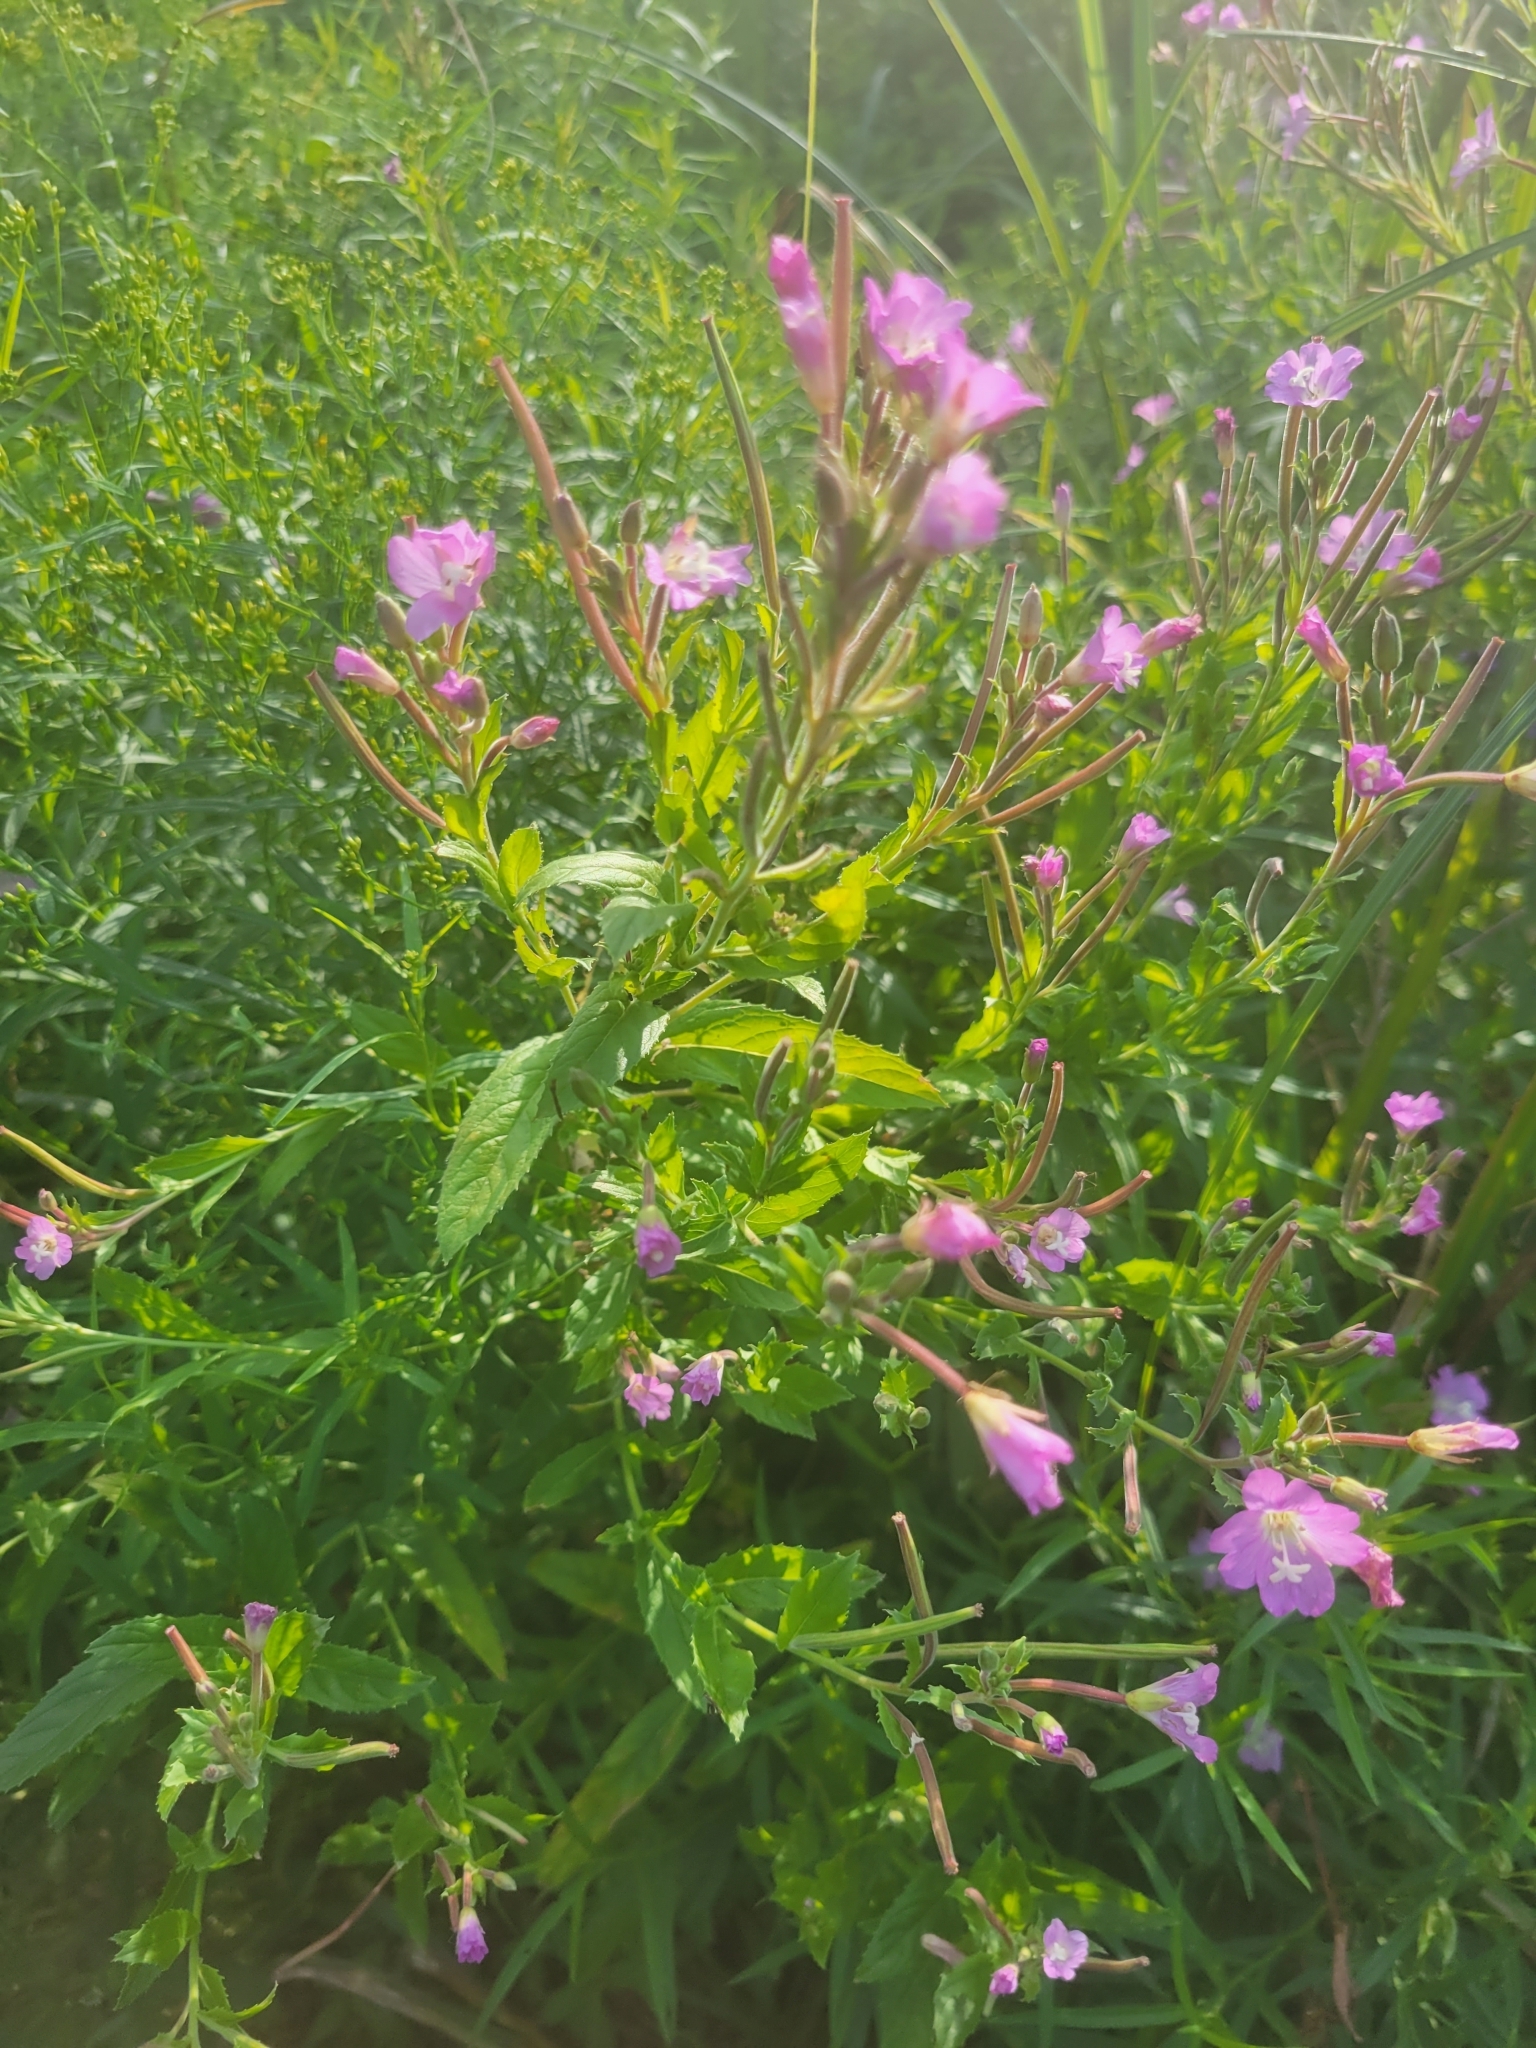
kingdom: Plantae
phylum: Tracheophyta
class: Magnoliopsida
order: Myrtales
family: Onagraceae
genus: Epilobium
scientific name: Epilobium hirsutum
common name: Great willowherb
